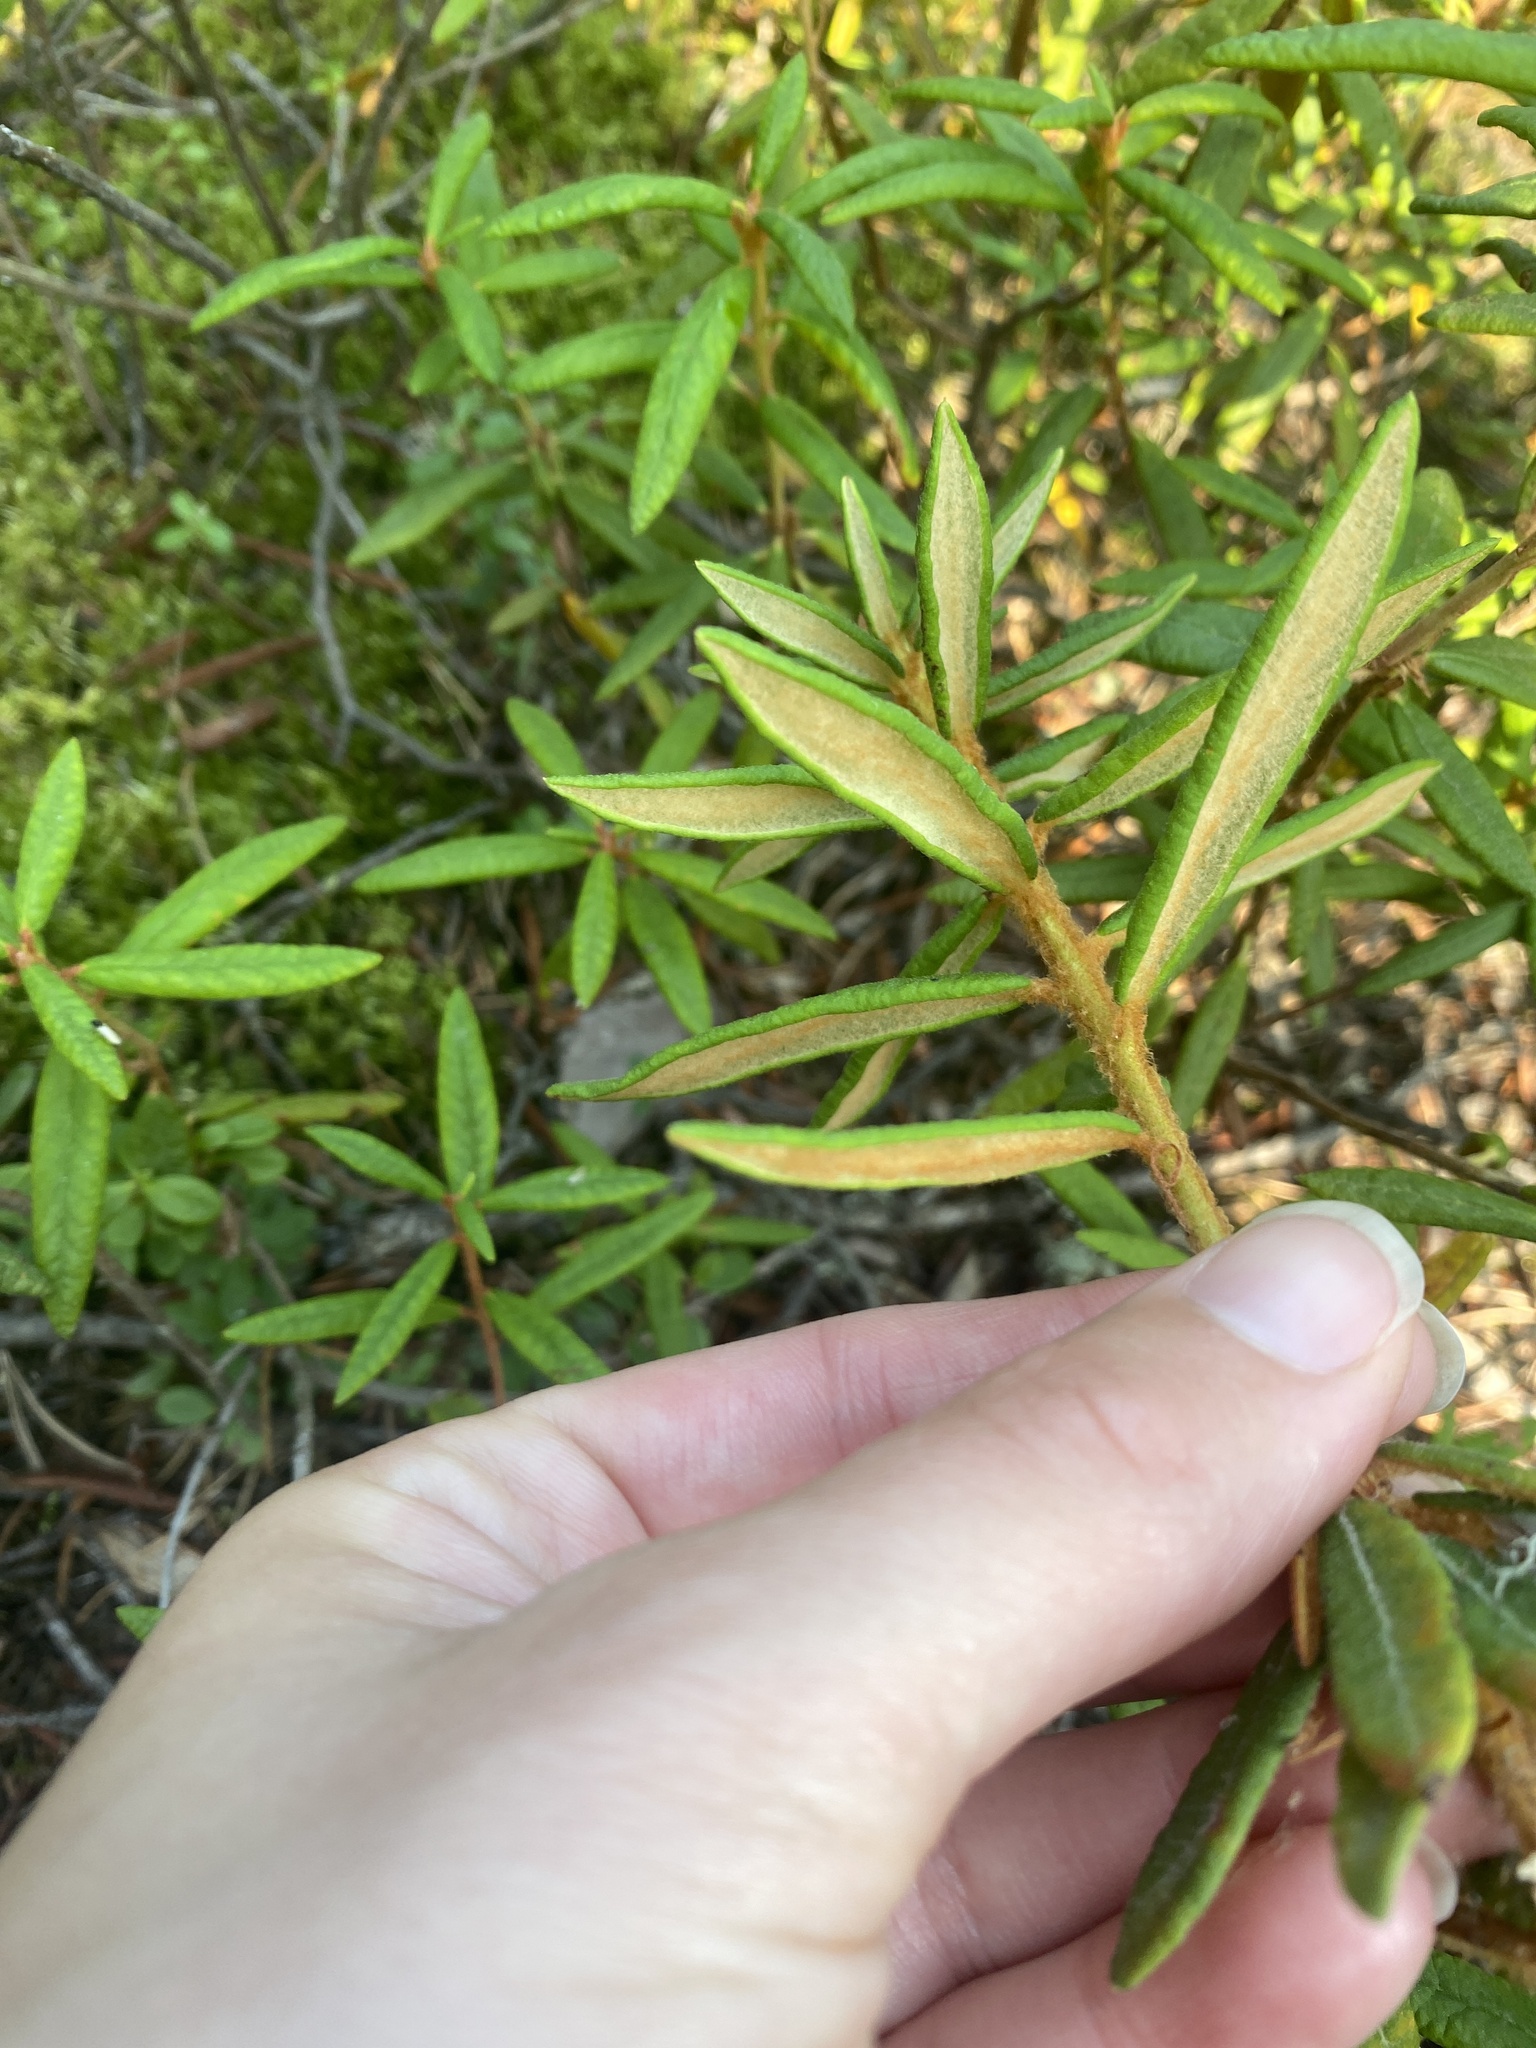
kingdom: Plantae
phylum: Tracheophyta
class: Magnoliopsida
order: Ericales
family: Ericaceae
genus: Rhododendron
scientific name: Rhododendron groenlandicum
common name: Bog labrador tea
